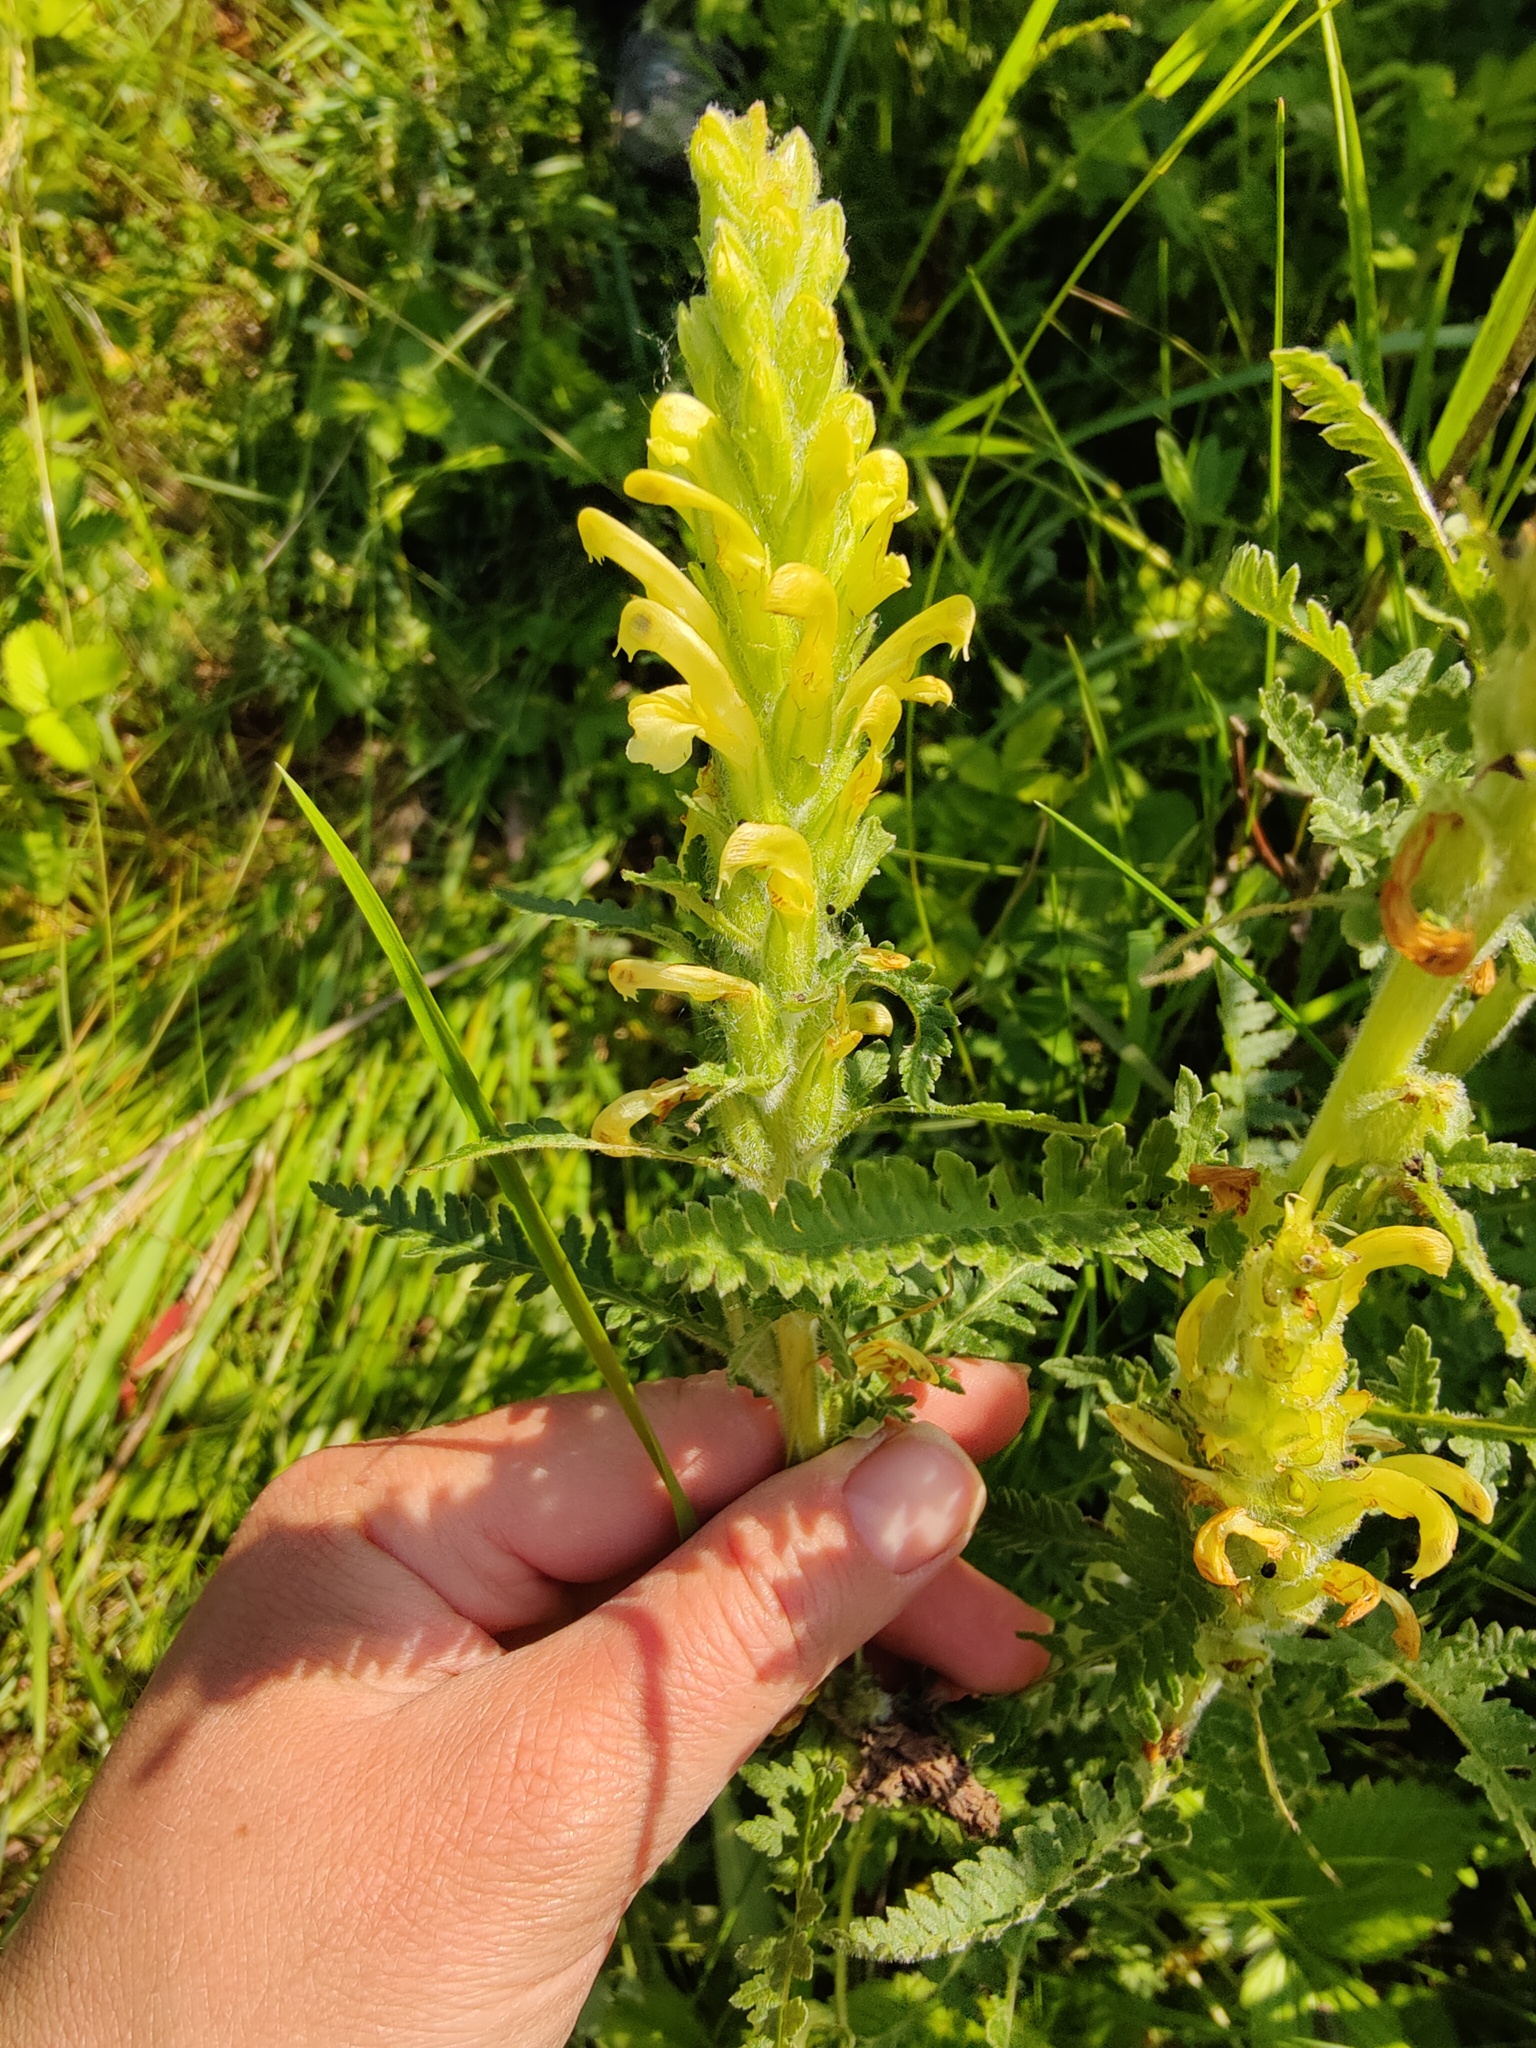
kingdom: Plantae
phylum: Tracheophyta
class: Magnoliopsida
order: Lamiales
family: Orobanchaceae
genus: Pedicularis
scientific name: Pedicularis kaufmannii
